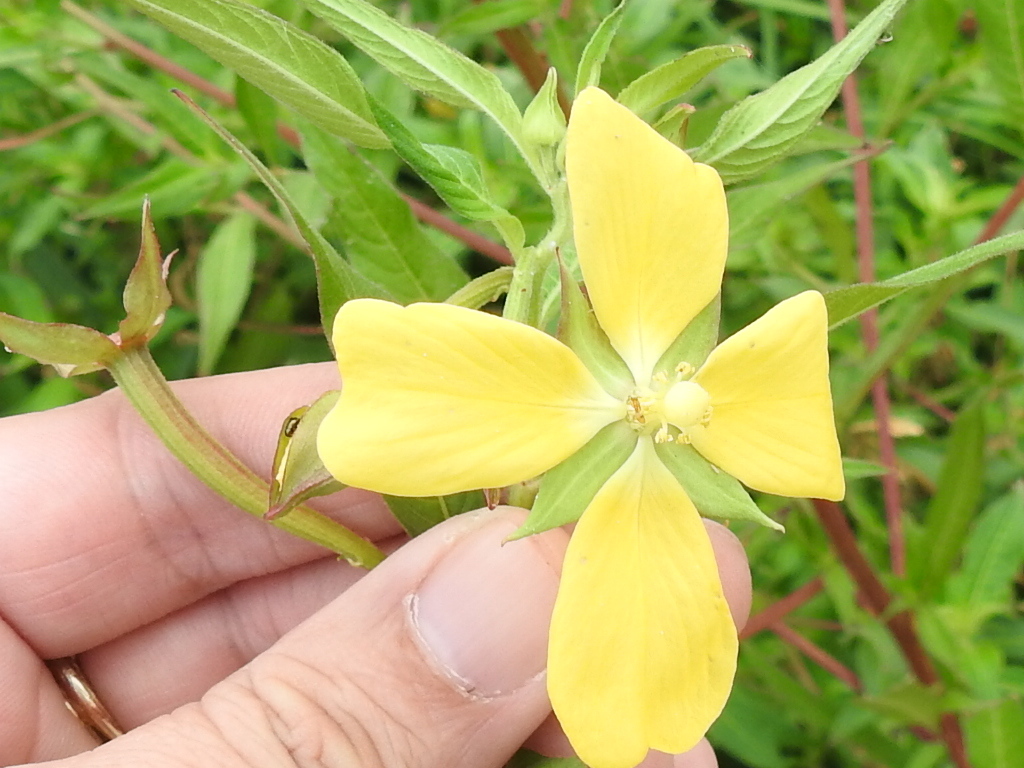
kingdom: Plantae
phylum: Tracheophyta
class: Magnoliopsida
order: Myrtales
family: Onagraceae
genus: Ludwigia
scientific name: Ludwigia octovalvis
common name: Water-primrose
